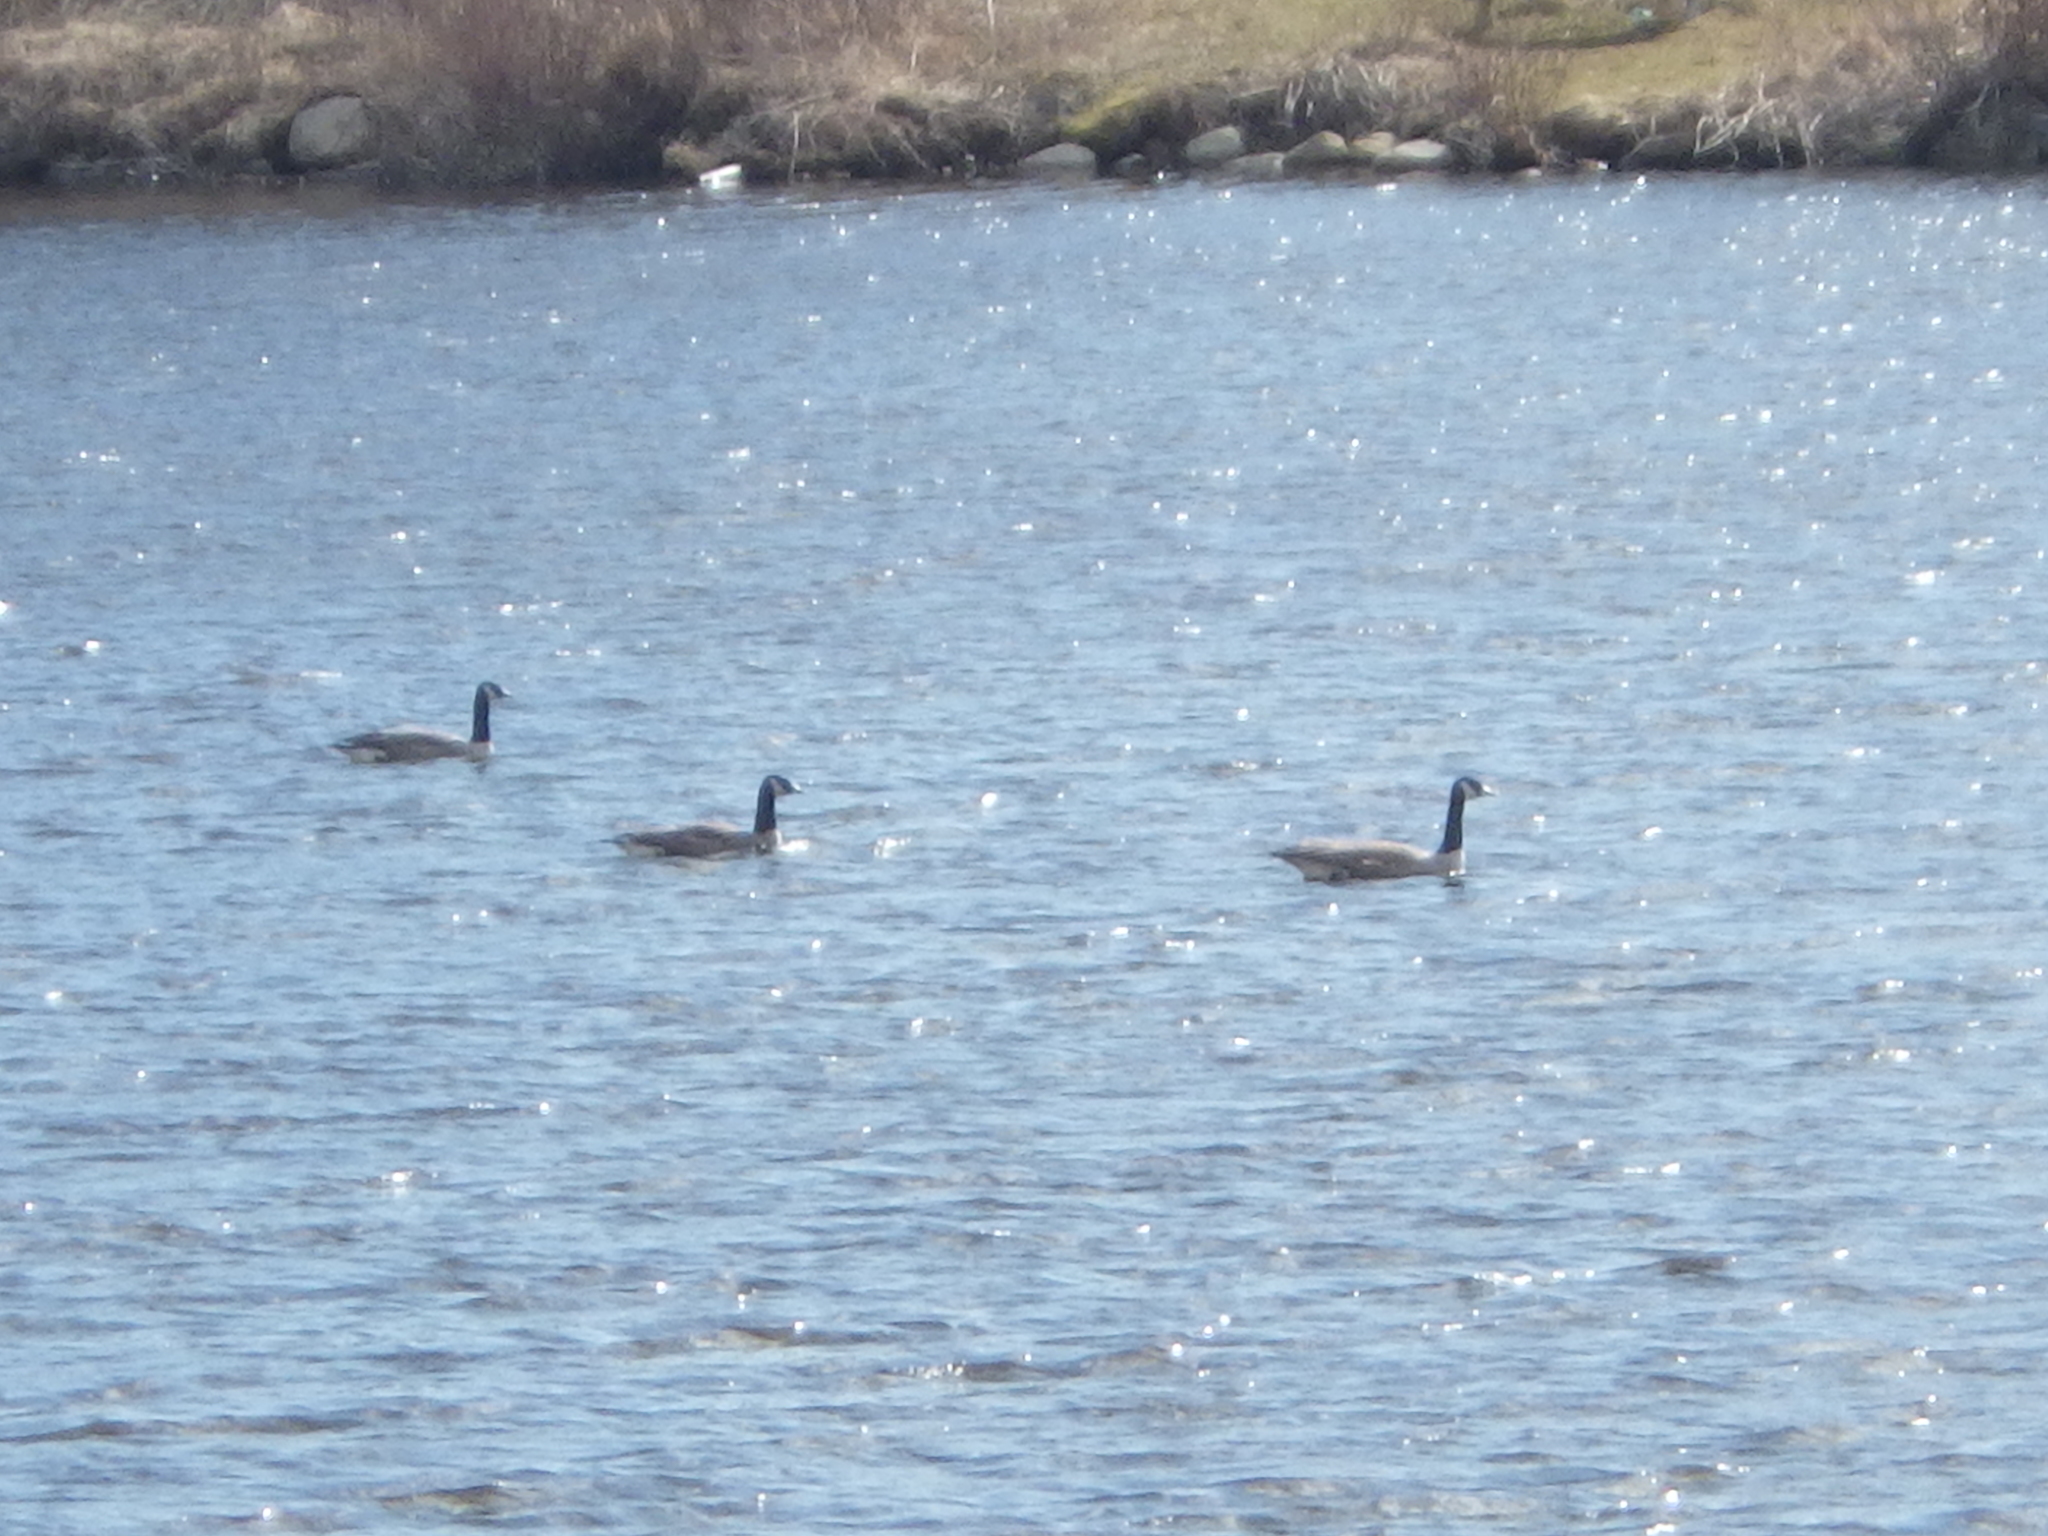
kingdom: Animalia
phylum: Chordata
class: Aves
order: Anseriformes
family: Anatidae
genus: Branta
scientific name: Branta canadensis
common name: Canada goose
